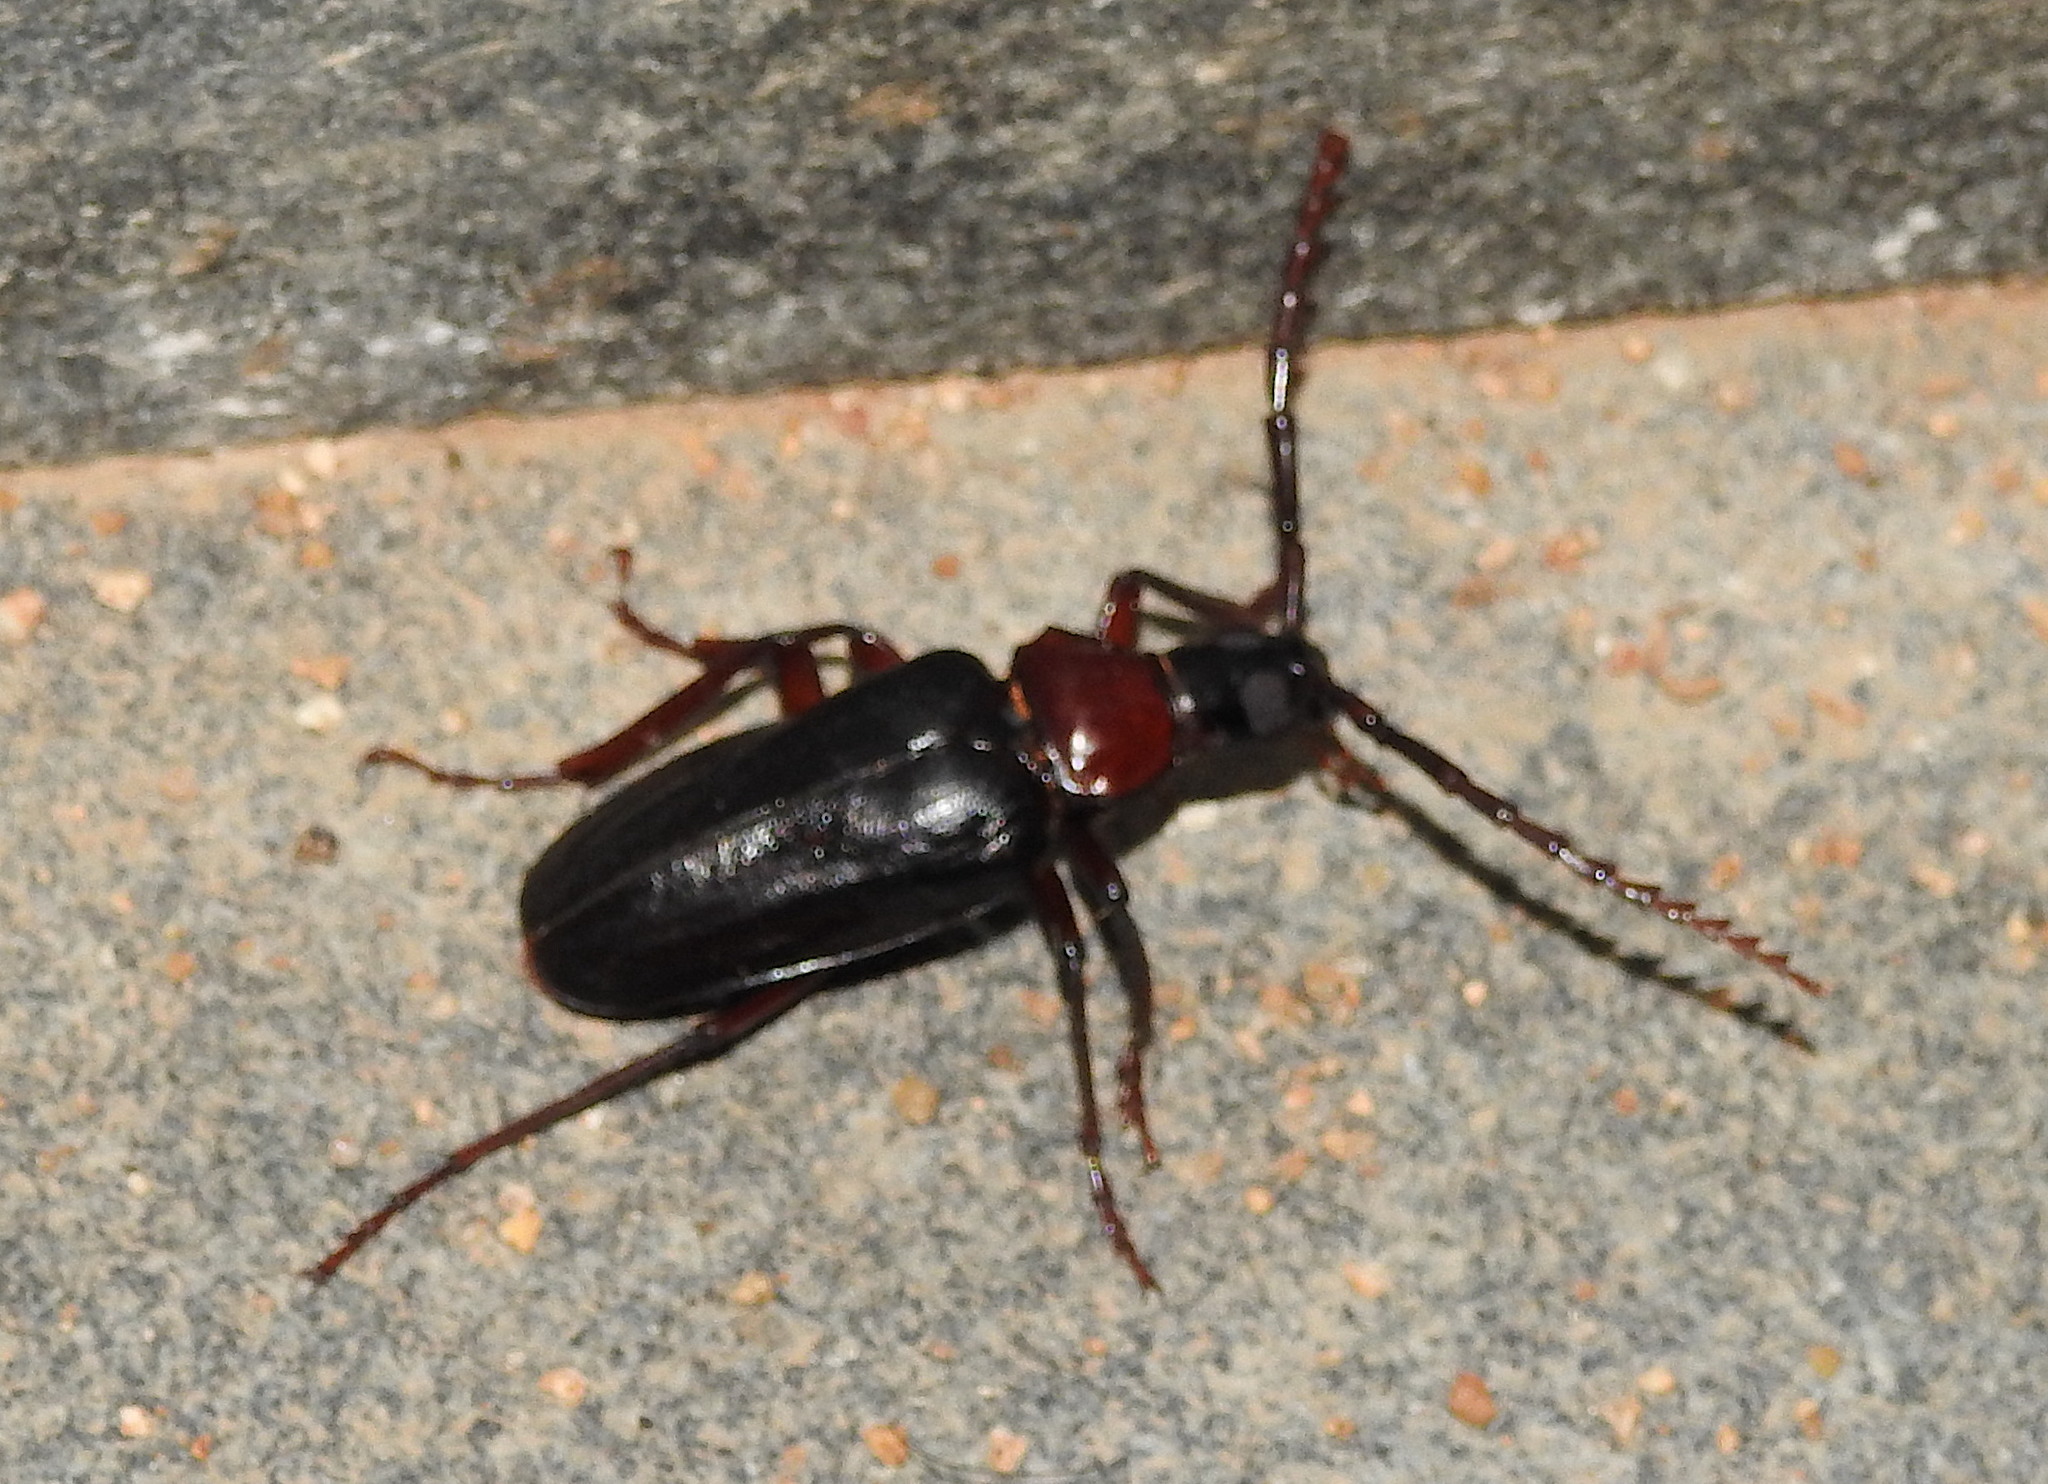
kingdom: Animalia
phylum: Arthropoda
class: Insecta
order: Coleoptera
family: Cerambycidae
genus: Dorysthenes
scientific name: Dorysthenes rostratus
